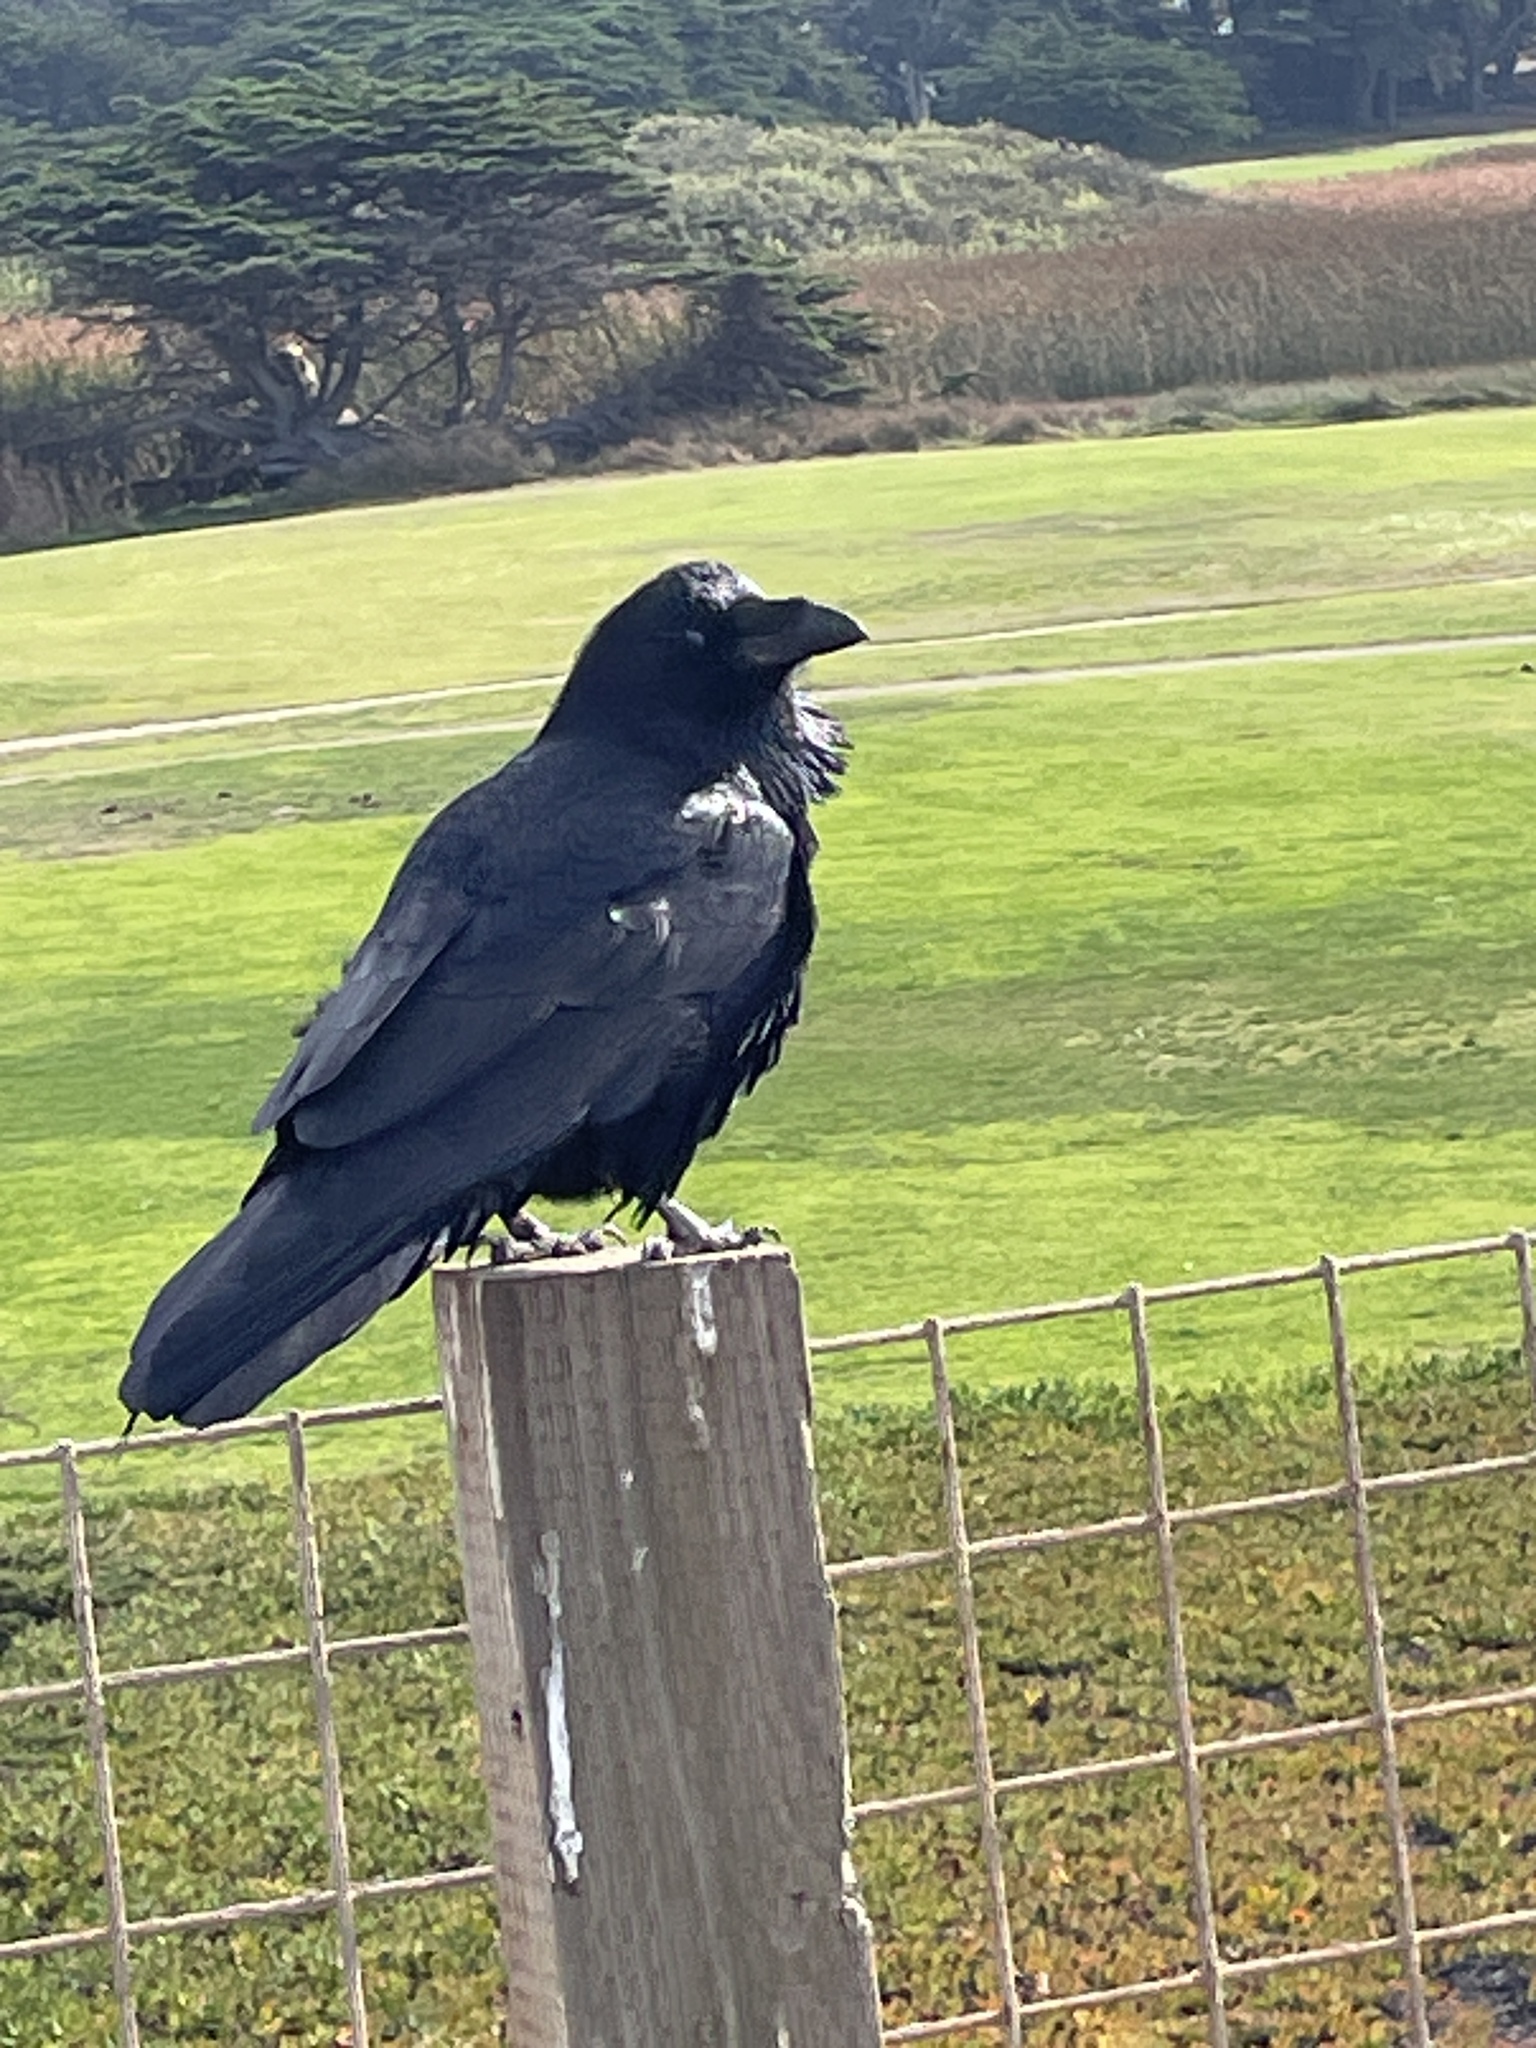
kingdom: Animalia
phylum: Chordata
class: Aves
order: Passeriformes
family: Corvidae
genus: Corvus
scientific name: Corvus corax
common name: Common raven
